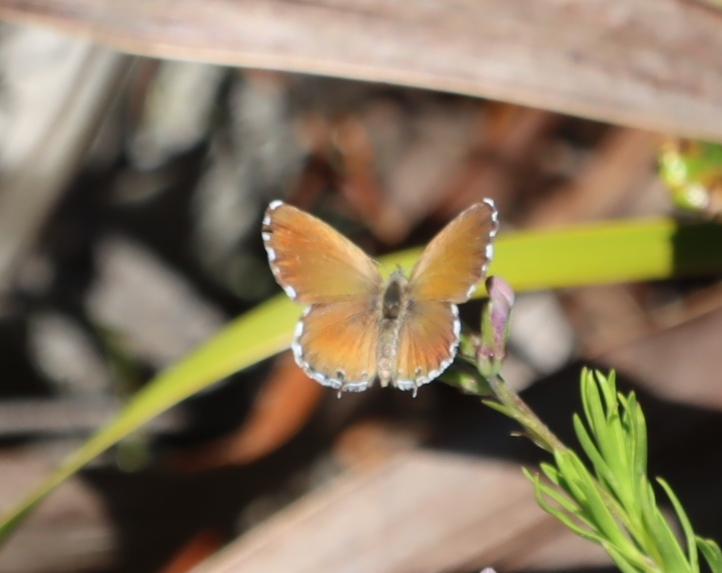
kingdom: Animalia
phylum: Arthropoda
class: Insecta
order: Lepidoptera
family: Lycaenidae
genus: Cacyreus
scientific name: Cacyreus fracta
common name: Water bronze
